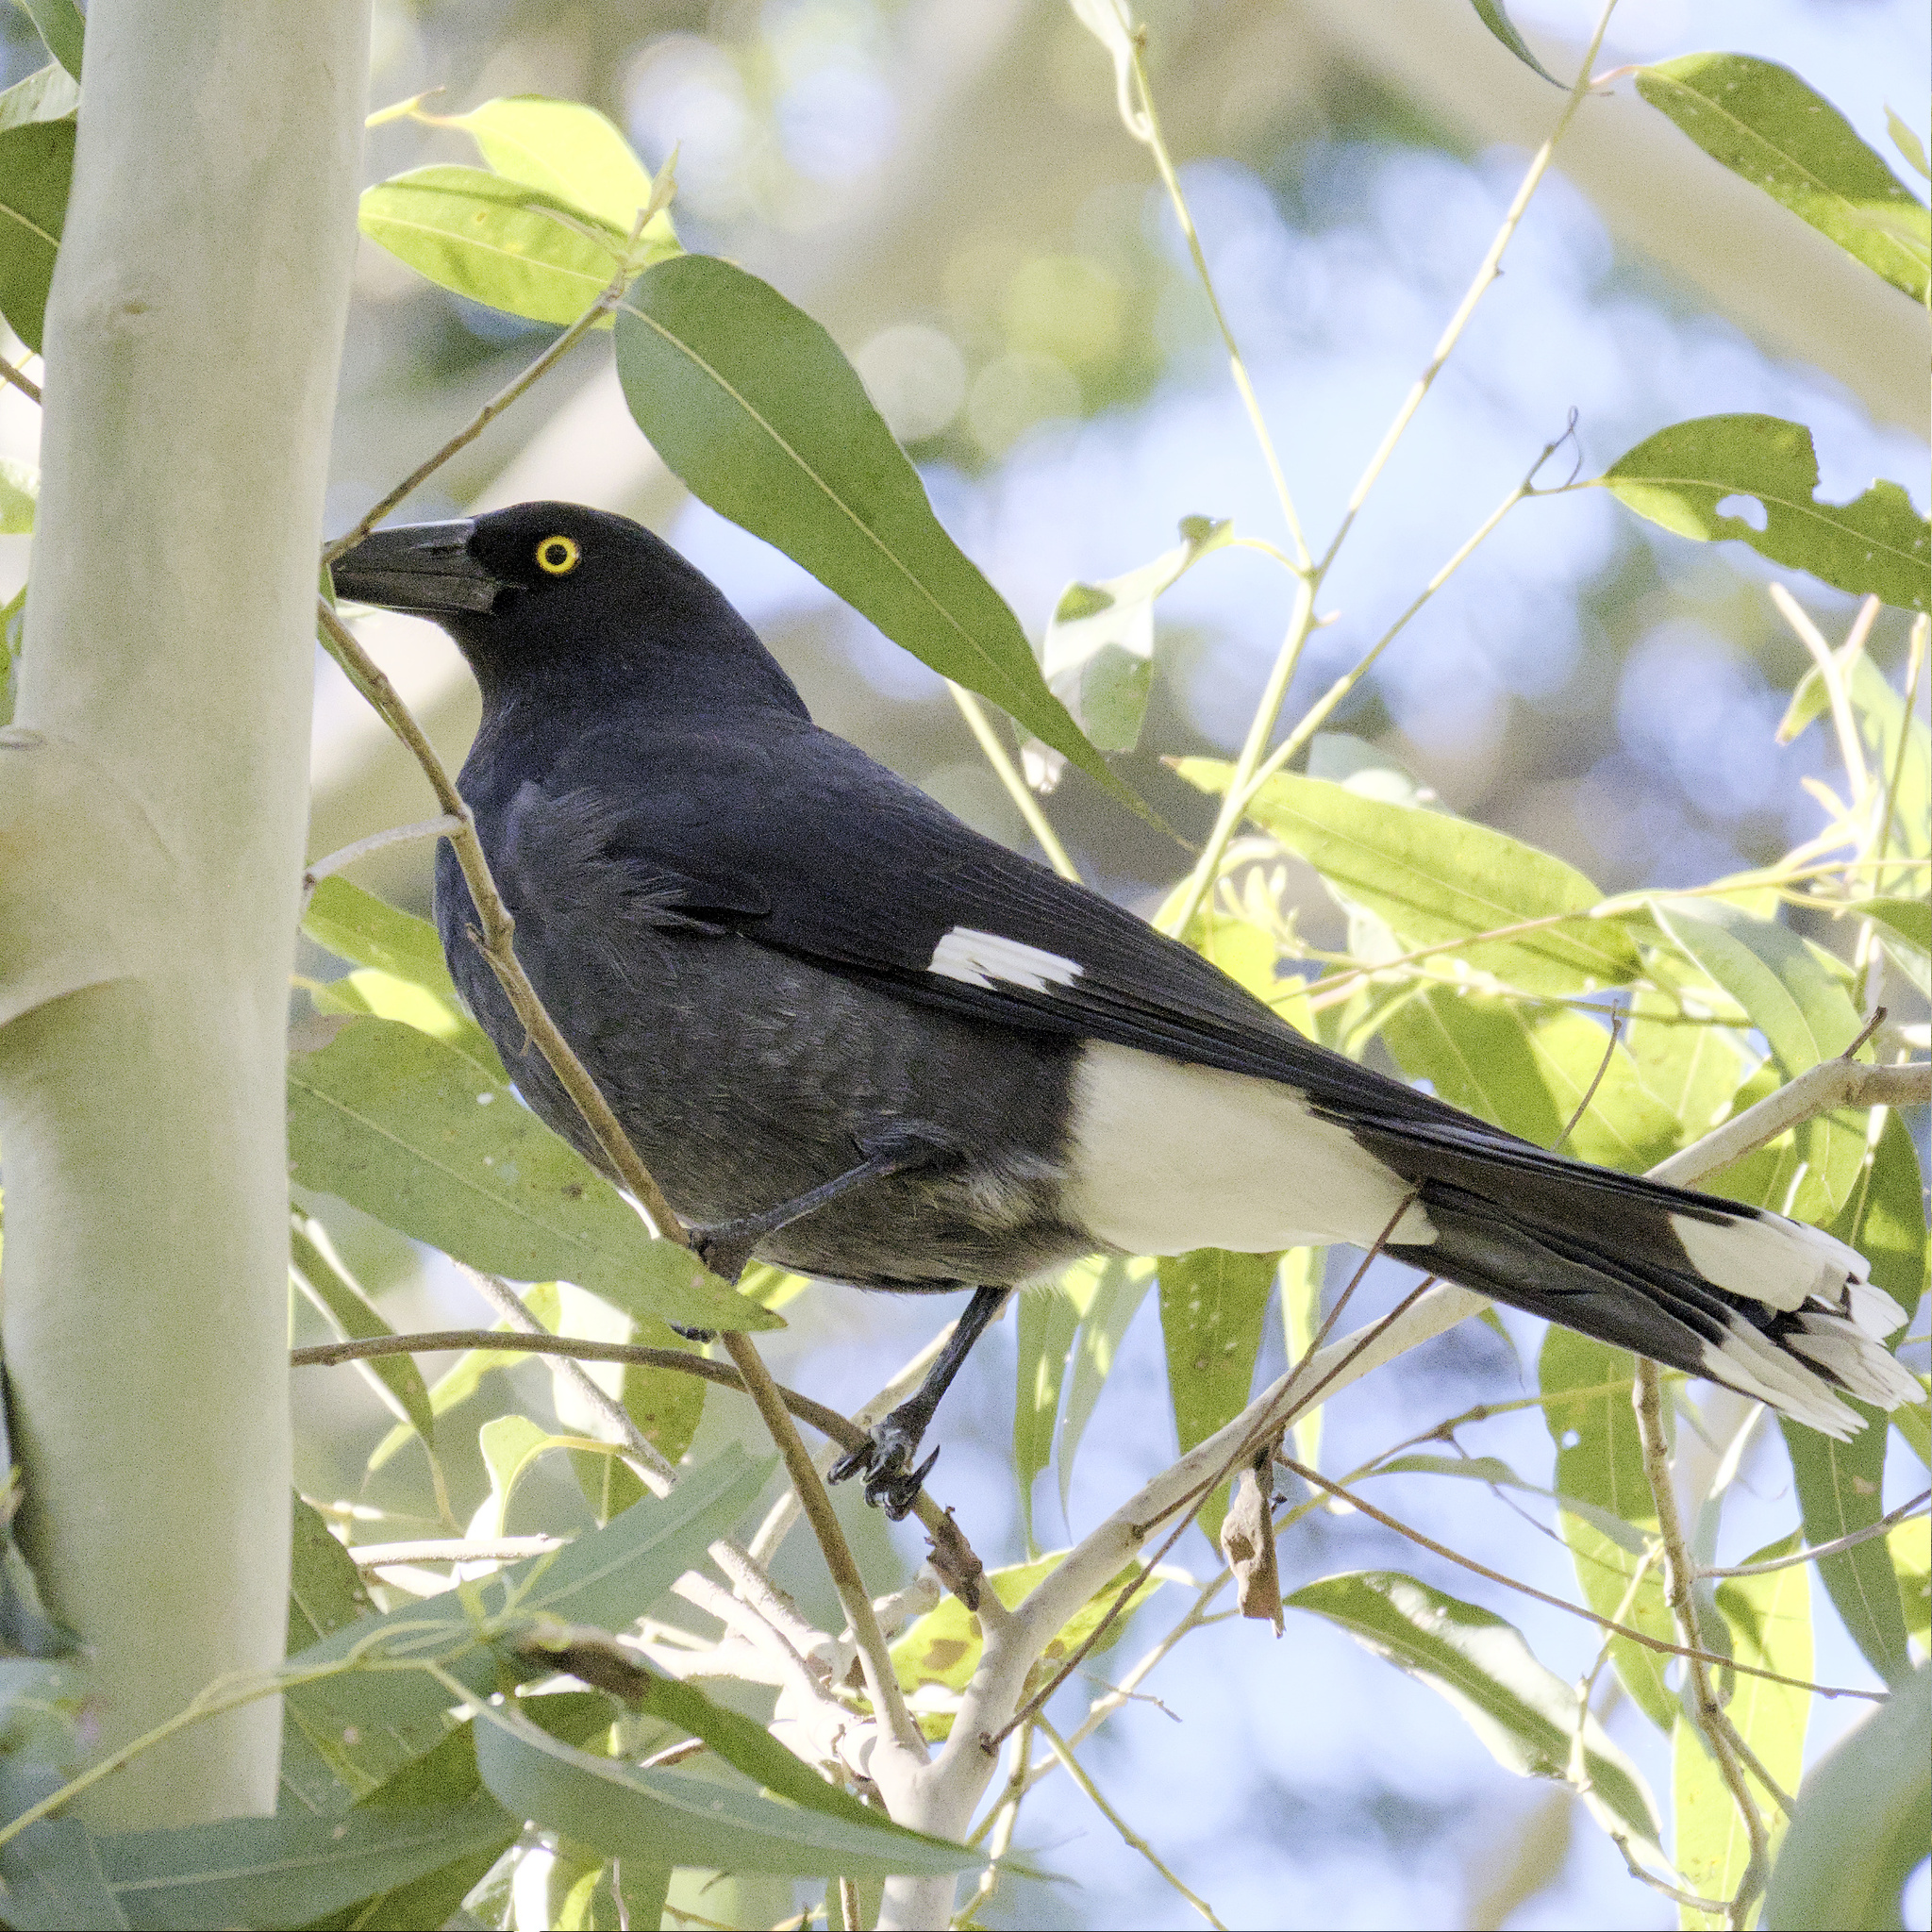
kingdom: Animalia
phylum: Chordata
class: Aves
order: Passeriformes
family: Cracticidae
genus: Strepera
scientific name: Strepera graculina
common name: Pied currawong
